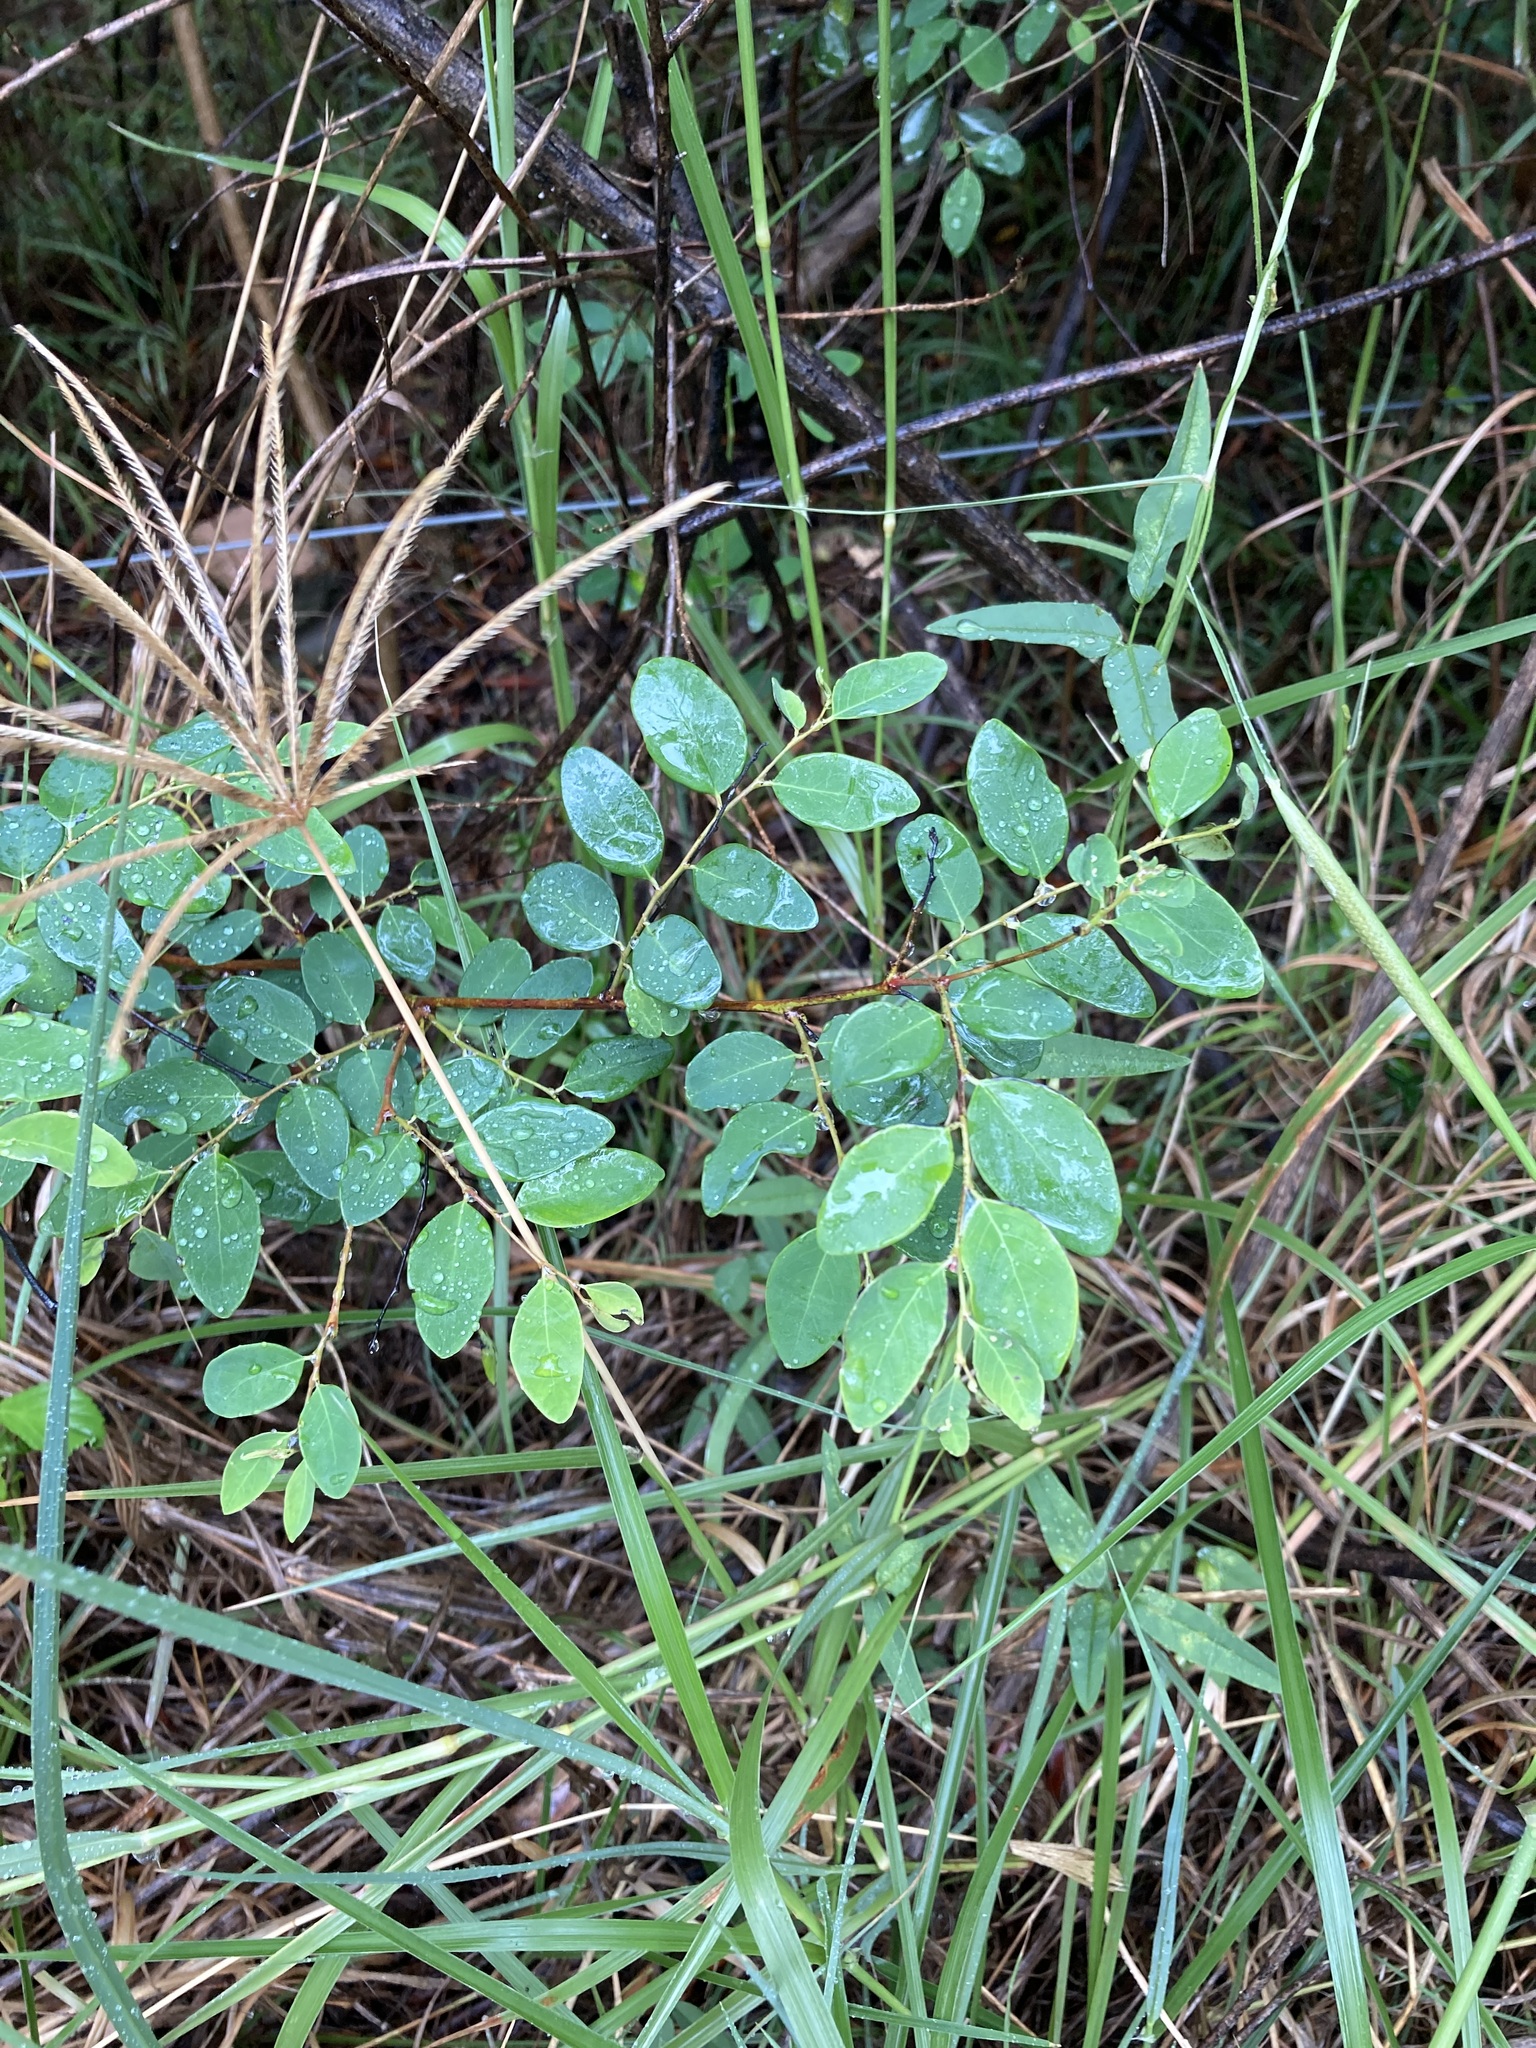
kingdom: Plantae
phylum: Tracheophyta
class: Magnoliopsida
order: Malpighiales
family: Phyllanthaceae
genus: Breynia
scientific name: Breynia oblongifolia
